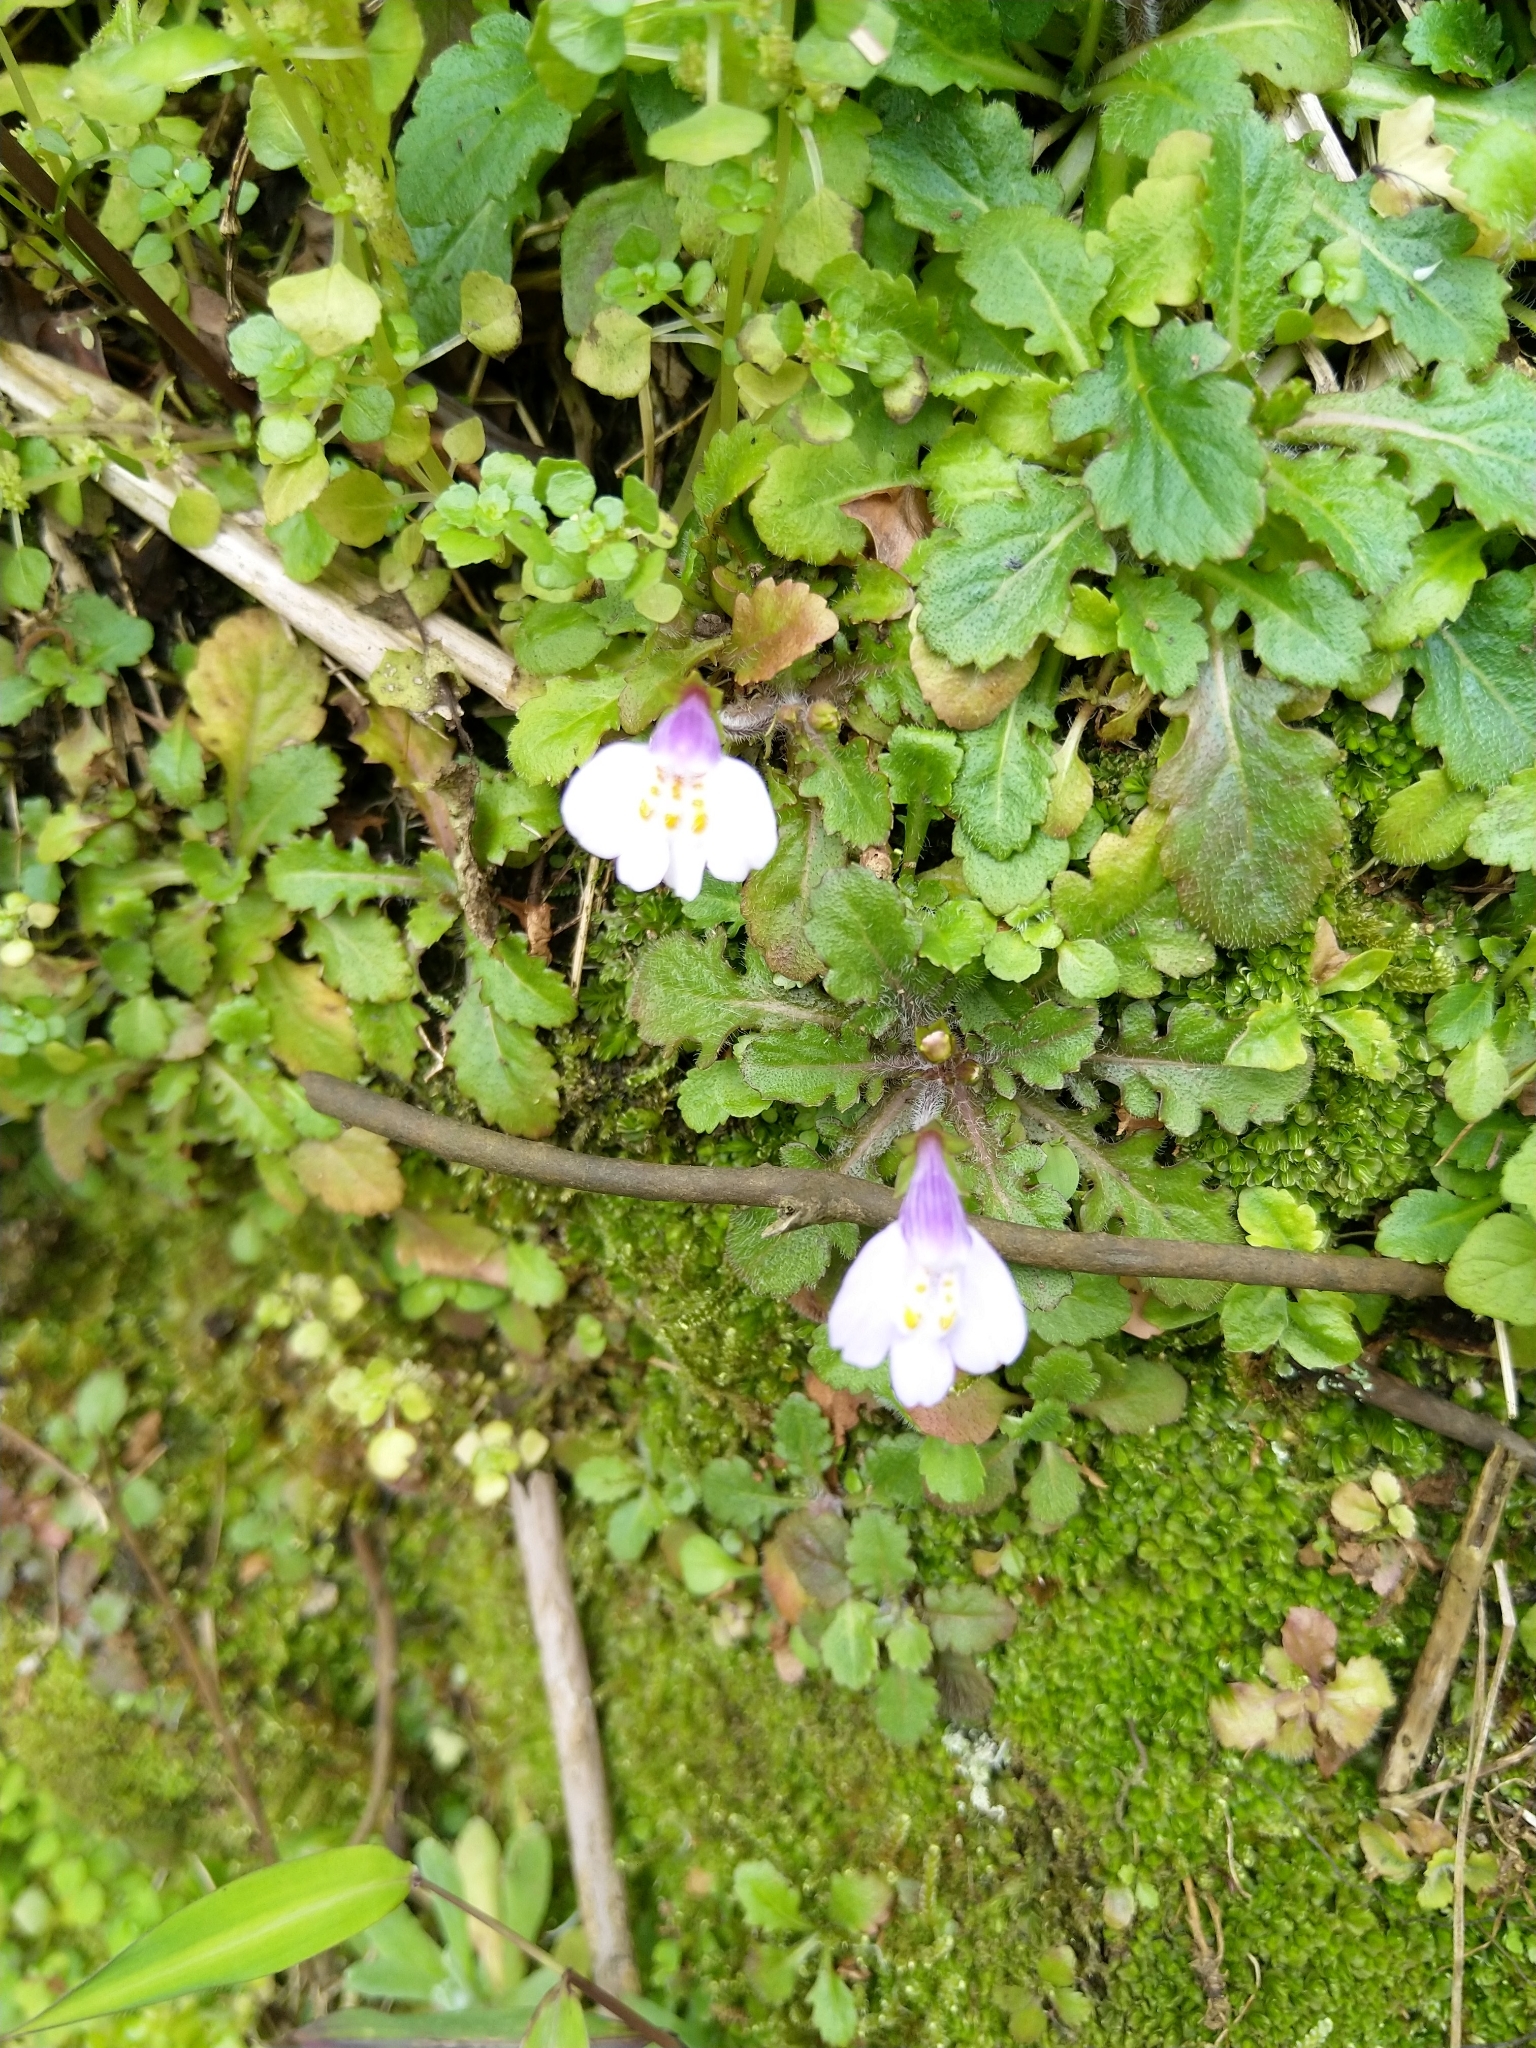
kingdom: Plantae
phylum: Tracheophyta
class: Magnoliopsida
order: Lamiales
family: Mazaceae
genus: Mazus
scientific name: Mazus fauriei
